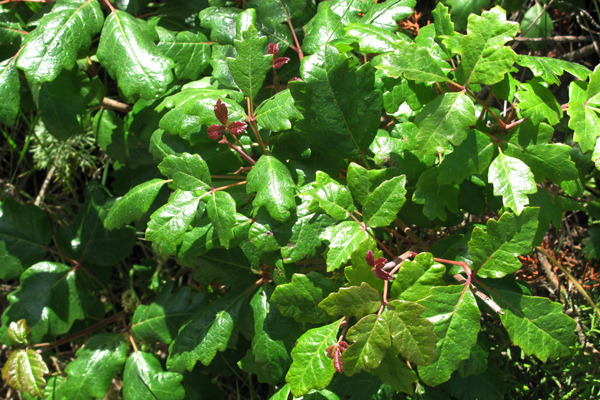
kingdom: Plantae
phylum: Tracheophyta
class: Magnoliopsida
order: Sapindales
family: Anacardiaceae
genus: Toxicodendron
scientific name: Toxicodendron diversilobum
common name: Pacific poison-oak
